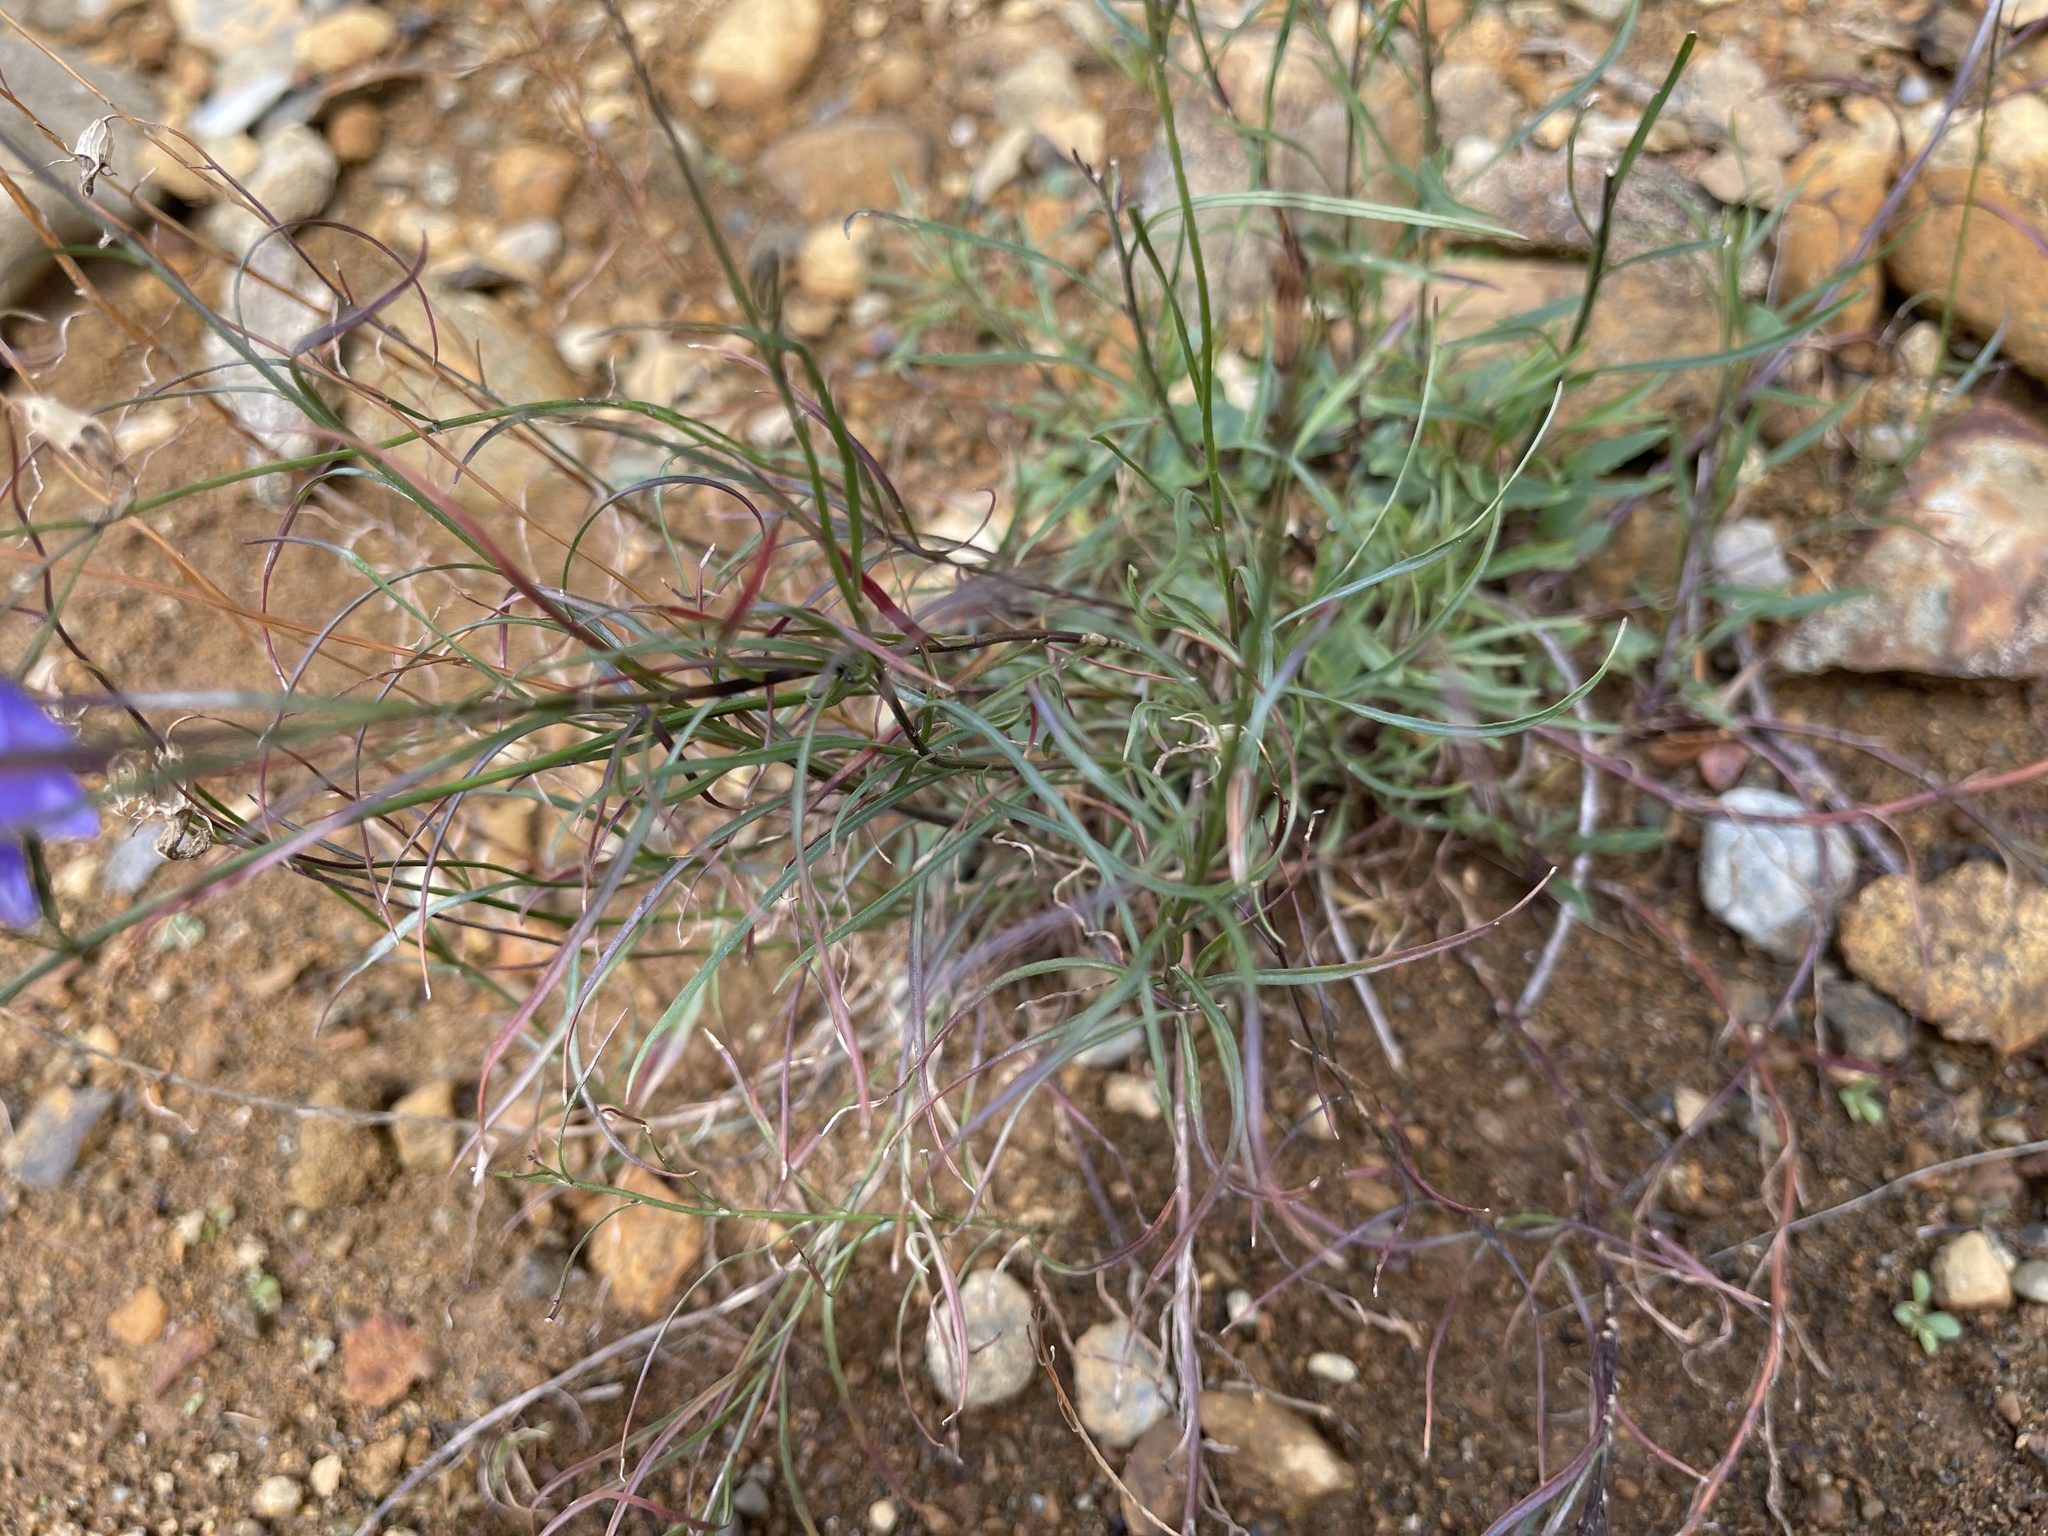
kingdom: Plantae
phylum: Tracheophyta
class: Magnoliopsida
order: Asterales
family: Campanulaceae
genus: Campanula
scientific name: Campanula giesekiana
